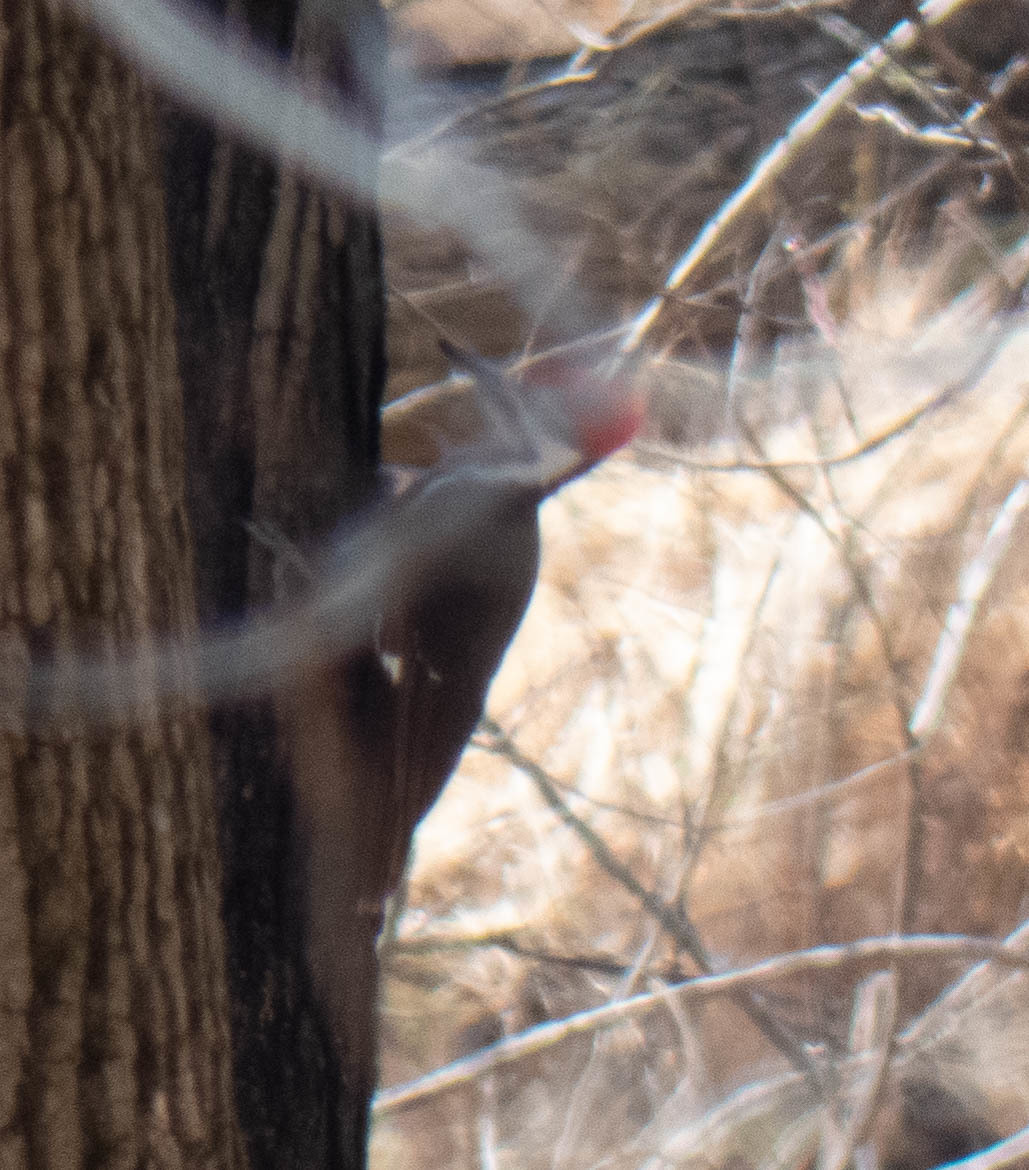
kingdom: Animalia
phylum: Chordata
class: Aves
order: Piciformes
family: Picidae
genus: Dryocopus
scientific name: Dryocopus pileatus
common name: Pileated woodpecker
